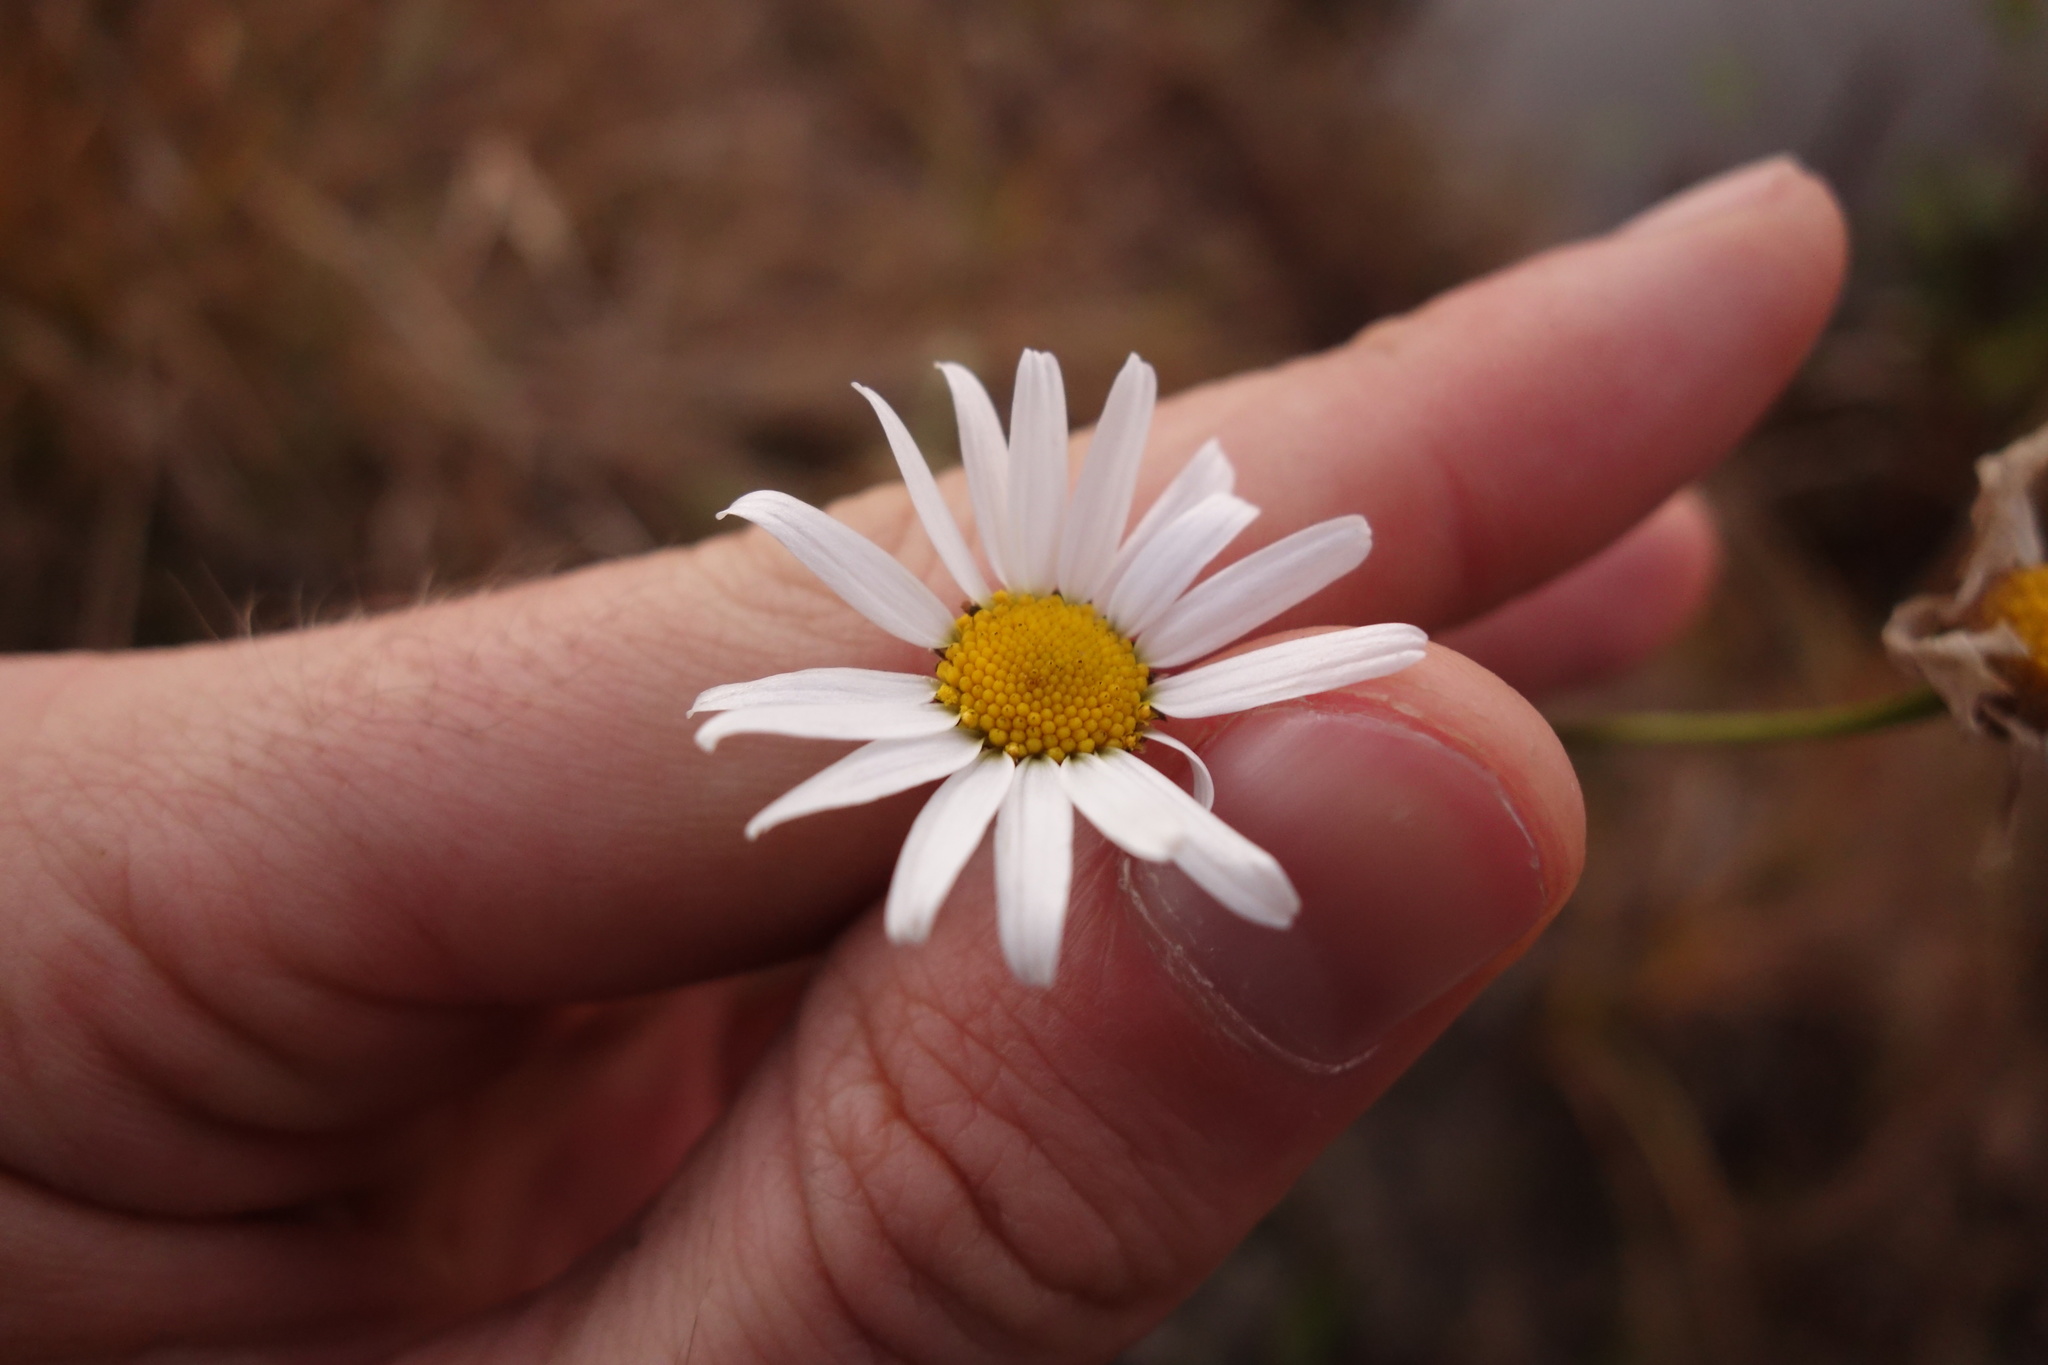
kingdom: Plantae
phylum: Tracheophyta
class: Magnoliopsida
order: Asterales
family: Asteraceae
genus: Tripleurospermum
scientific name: Tripleurospermum inodorum
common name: Scentless mayweed
